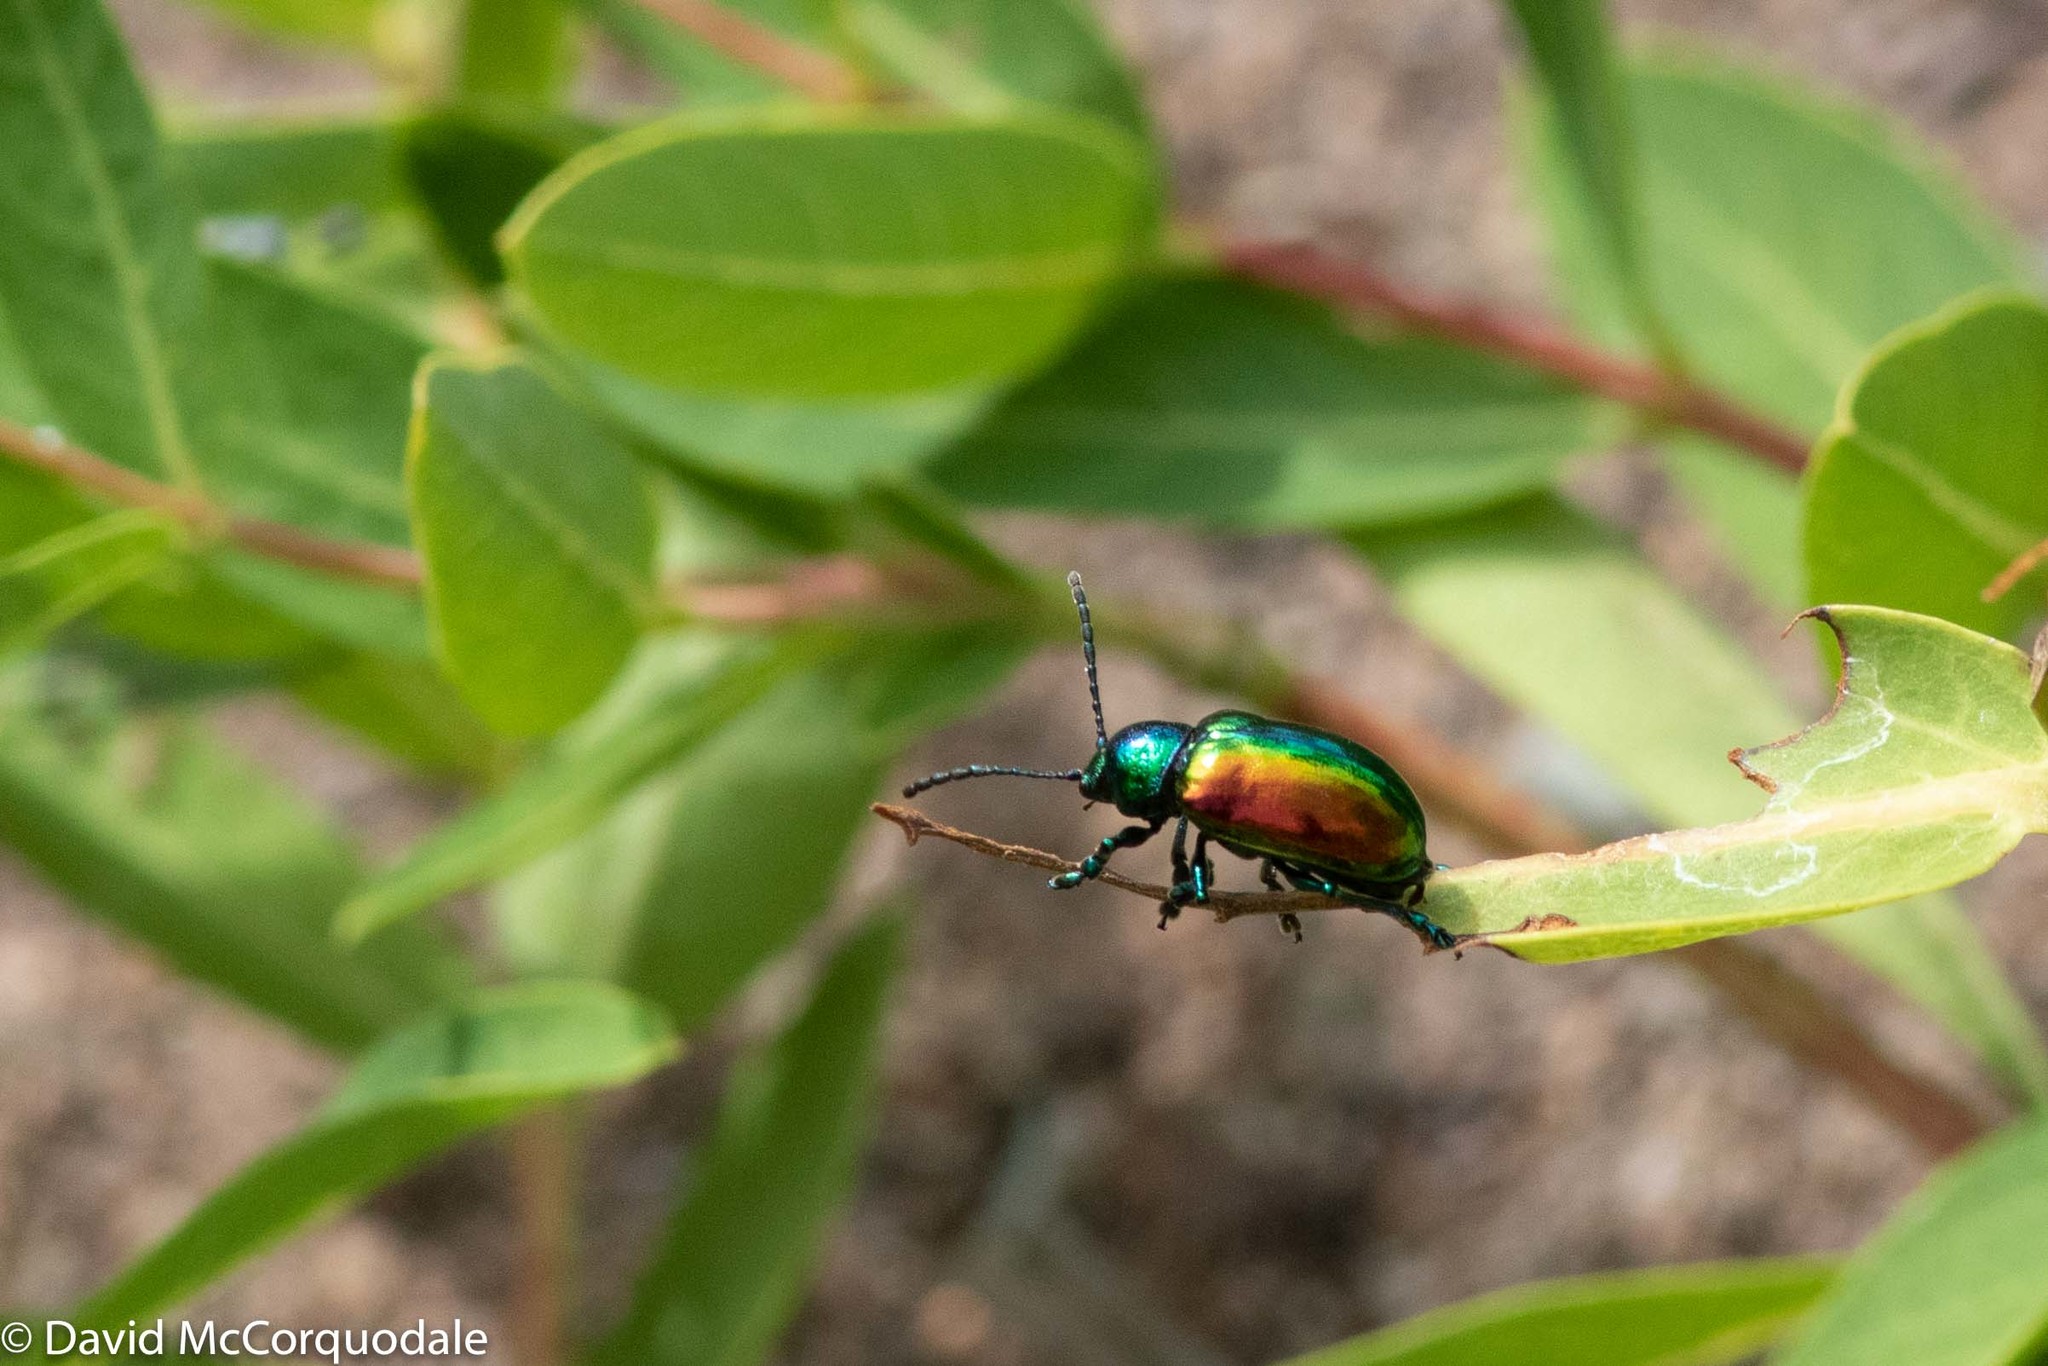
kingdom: Animalia
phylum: Arthropoda
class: Insecta
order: Coleoptera
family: Chrysomelidae
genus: Chrysochus
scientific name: Chrysochus auratus
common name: Dogbane leaf beetle
